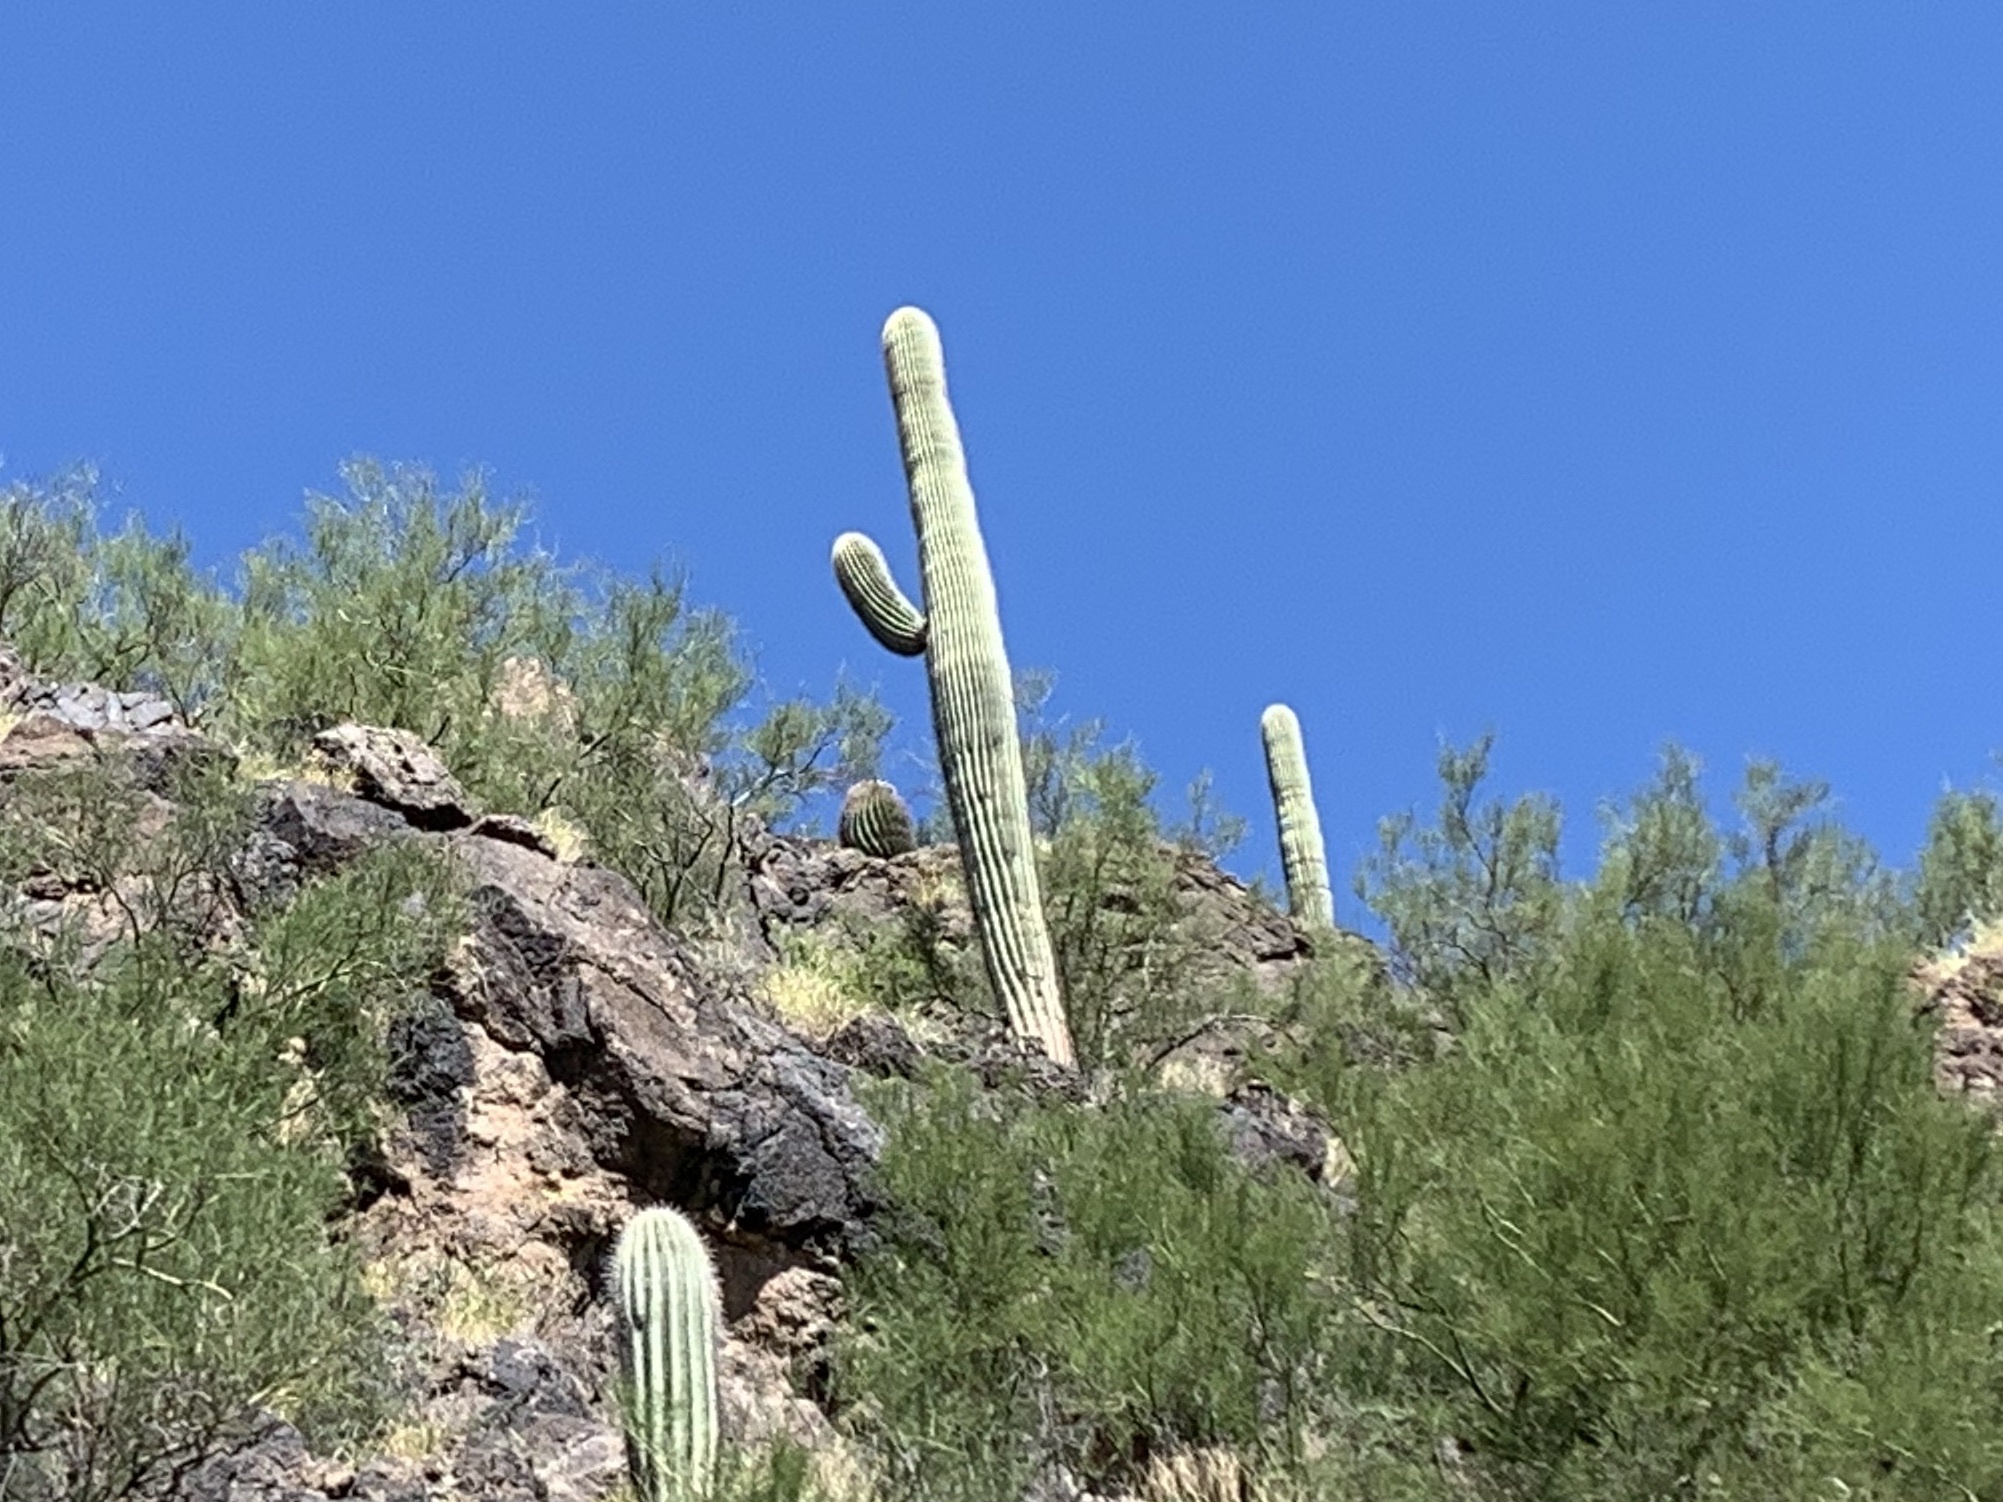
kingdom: Plantae
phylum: Tracheophyta
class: Magnoliopsida
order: Caryophyllales
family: Cactaceae
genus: Carnegiea
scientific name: Carnegiea gigantea
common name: Saguaro
